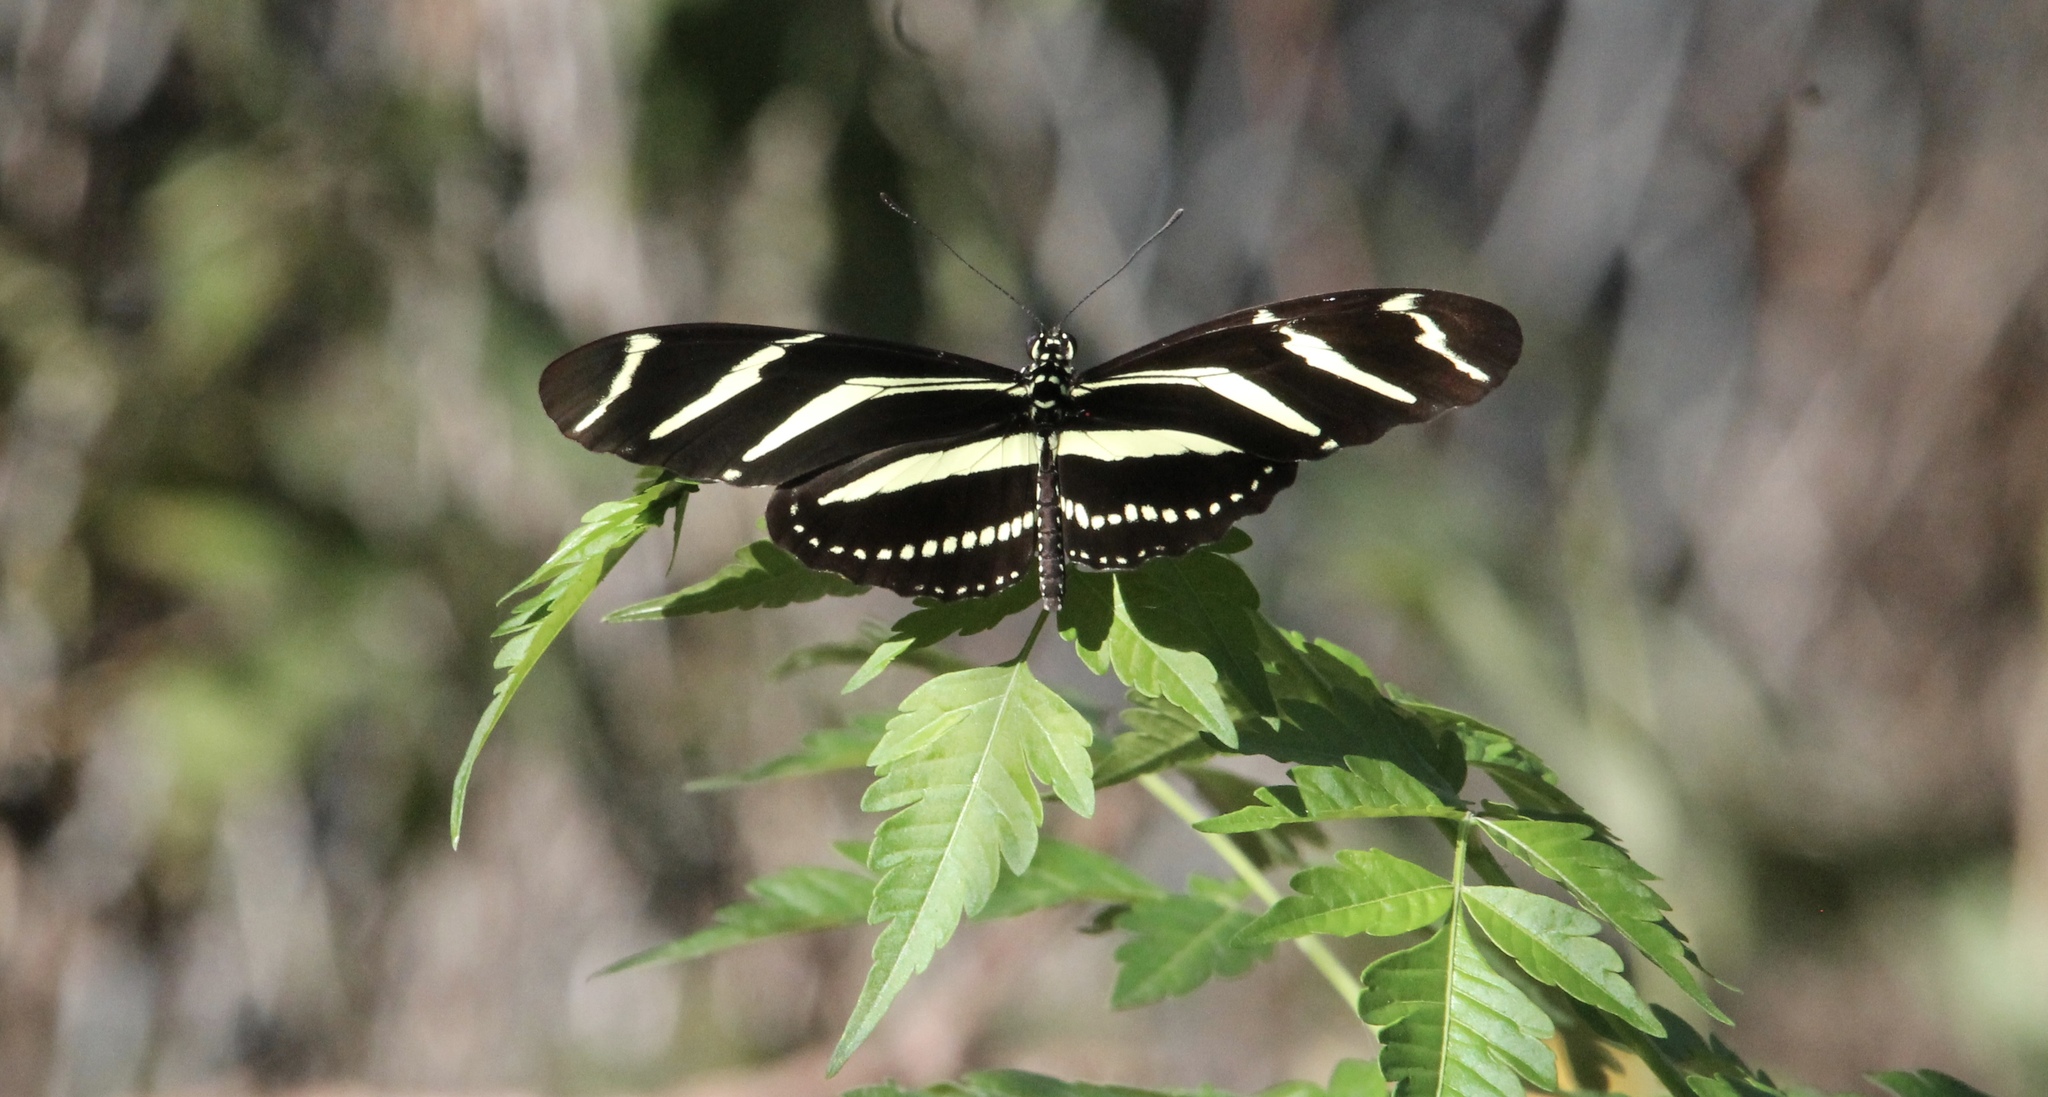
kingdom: Animalia
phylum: Arthropoda
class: Insecta
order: Lepidoptera
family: Nymphalidae
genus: Heliconius
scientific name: Heliconius charithonia
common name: Zebra long wing
